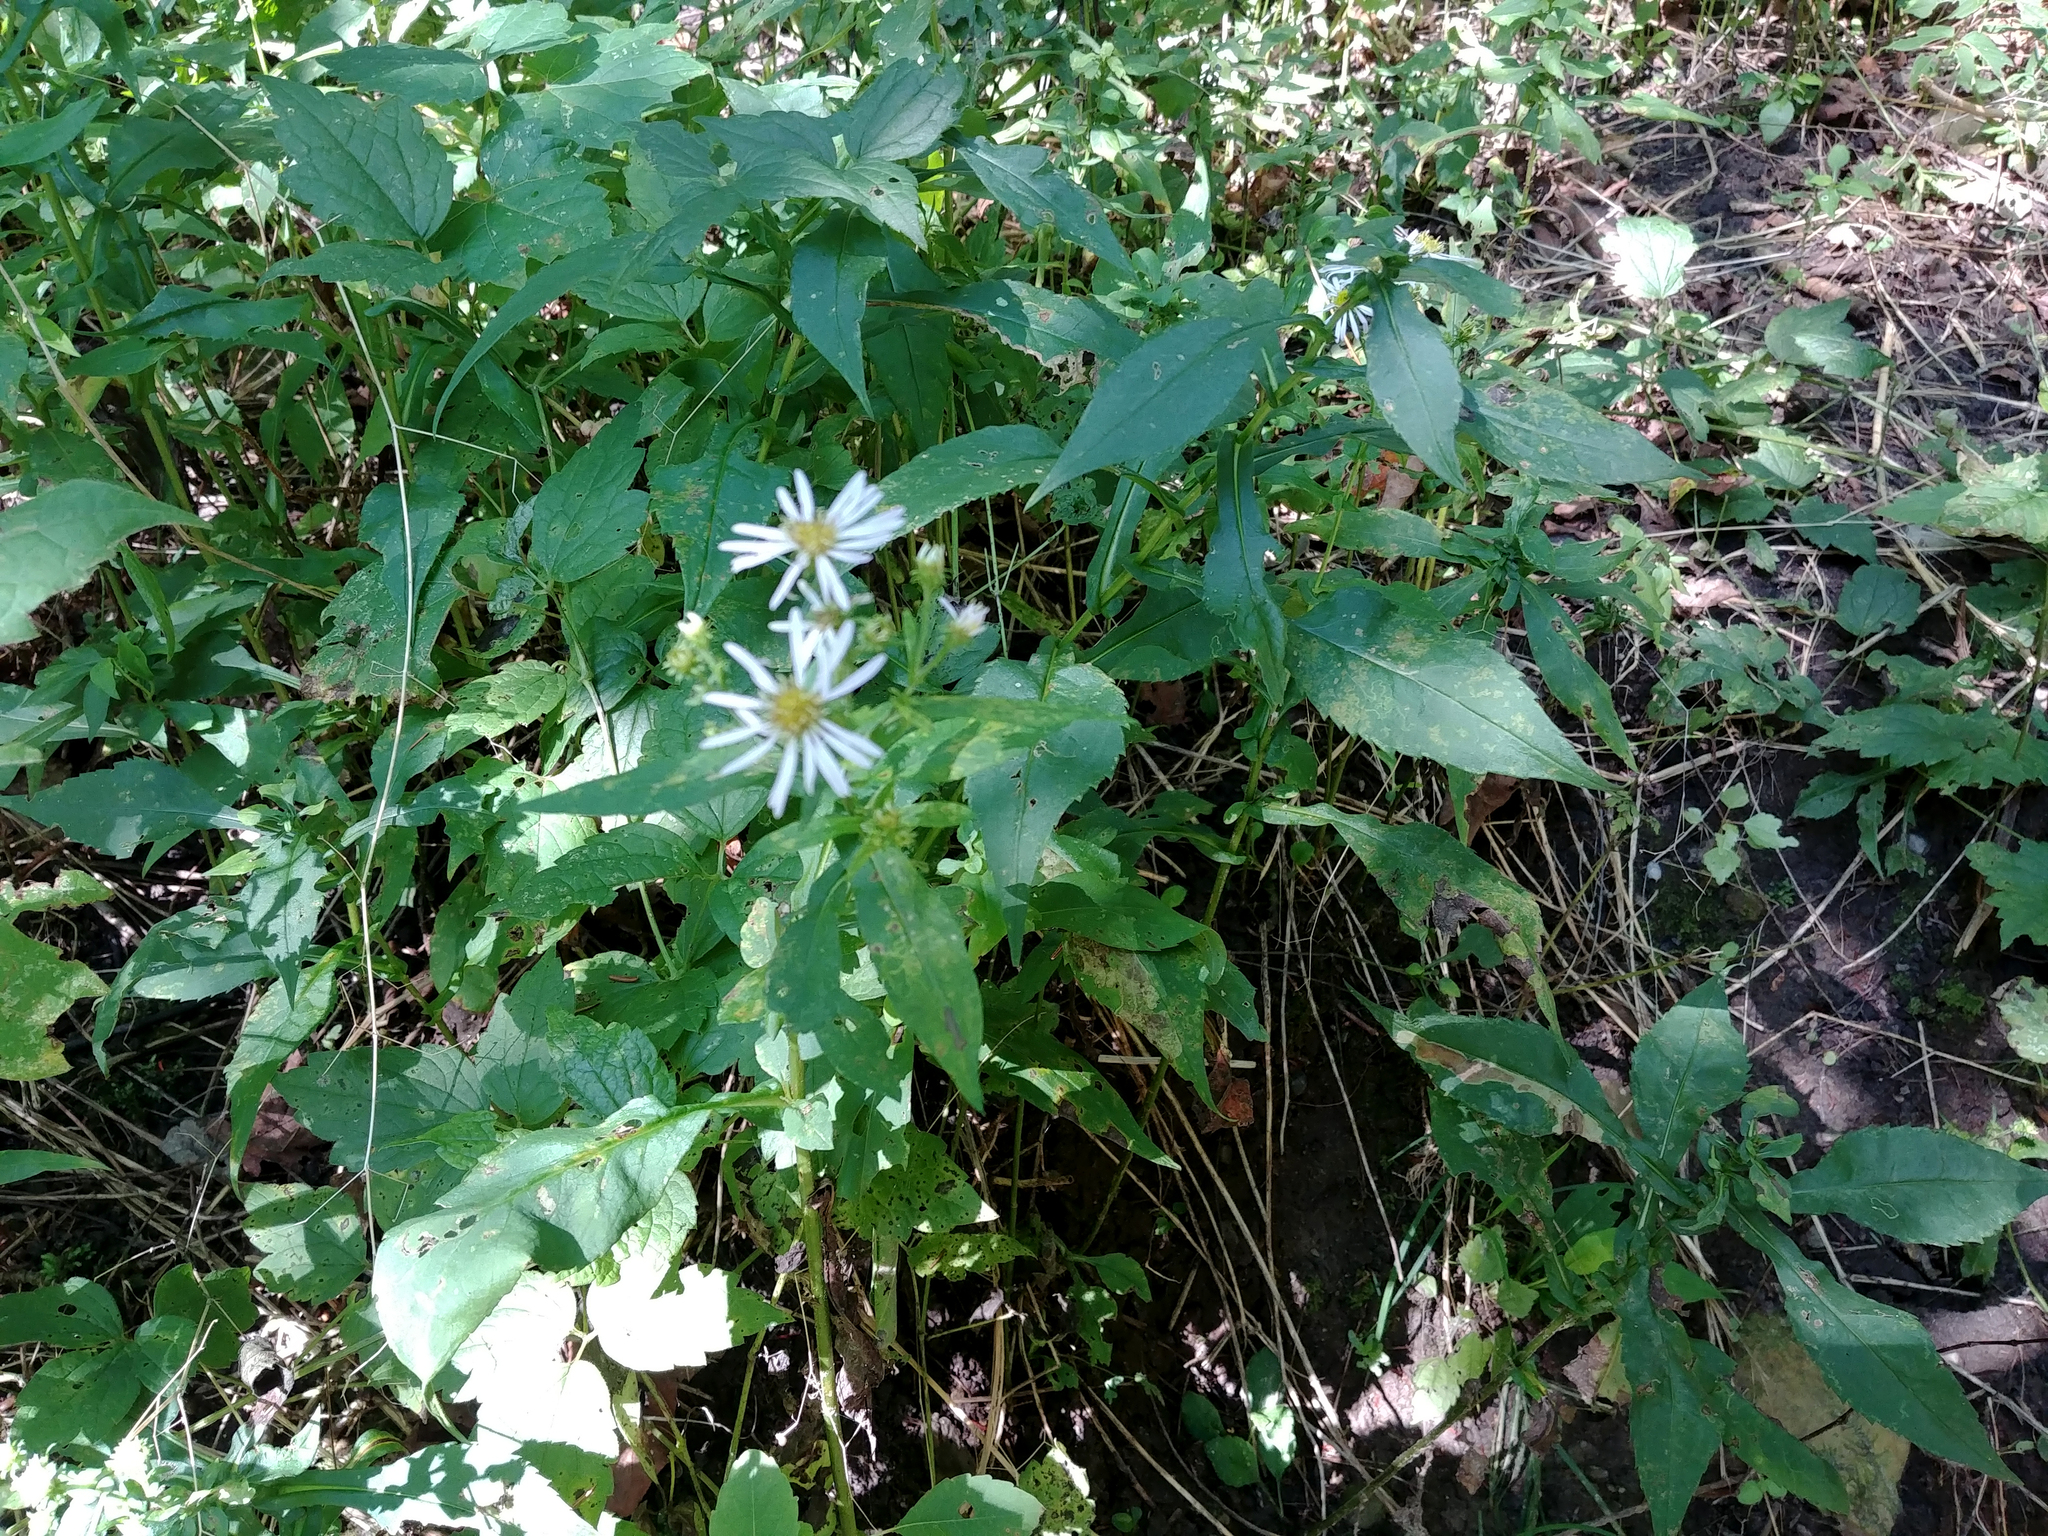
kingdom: Plantae
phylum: Tracheophyta
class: Magnoliopsida
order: Asterales
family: Asteraceae
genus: Symphyotrichum
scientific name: Symphyotrichum prenanthoides
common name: Crooked-stem aster
